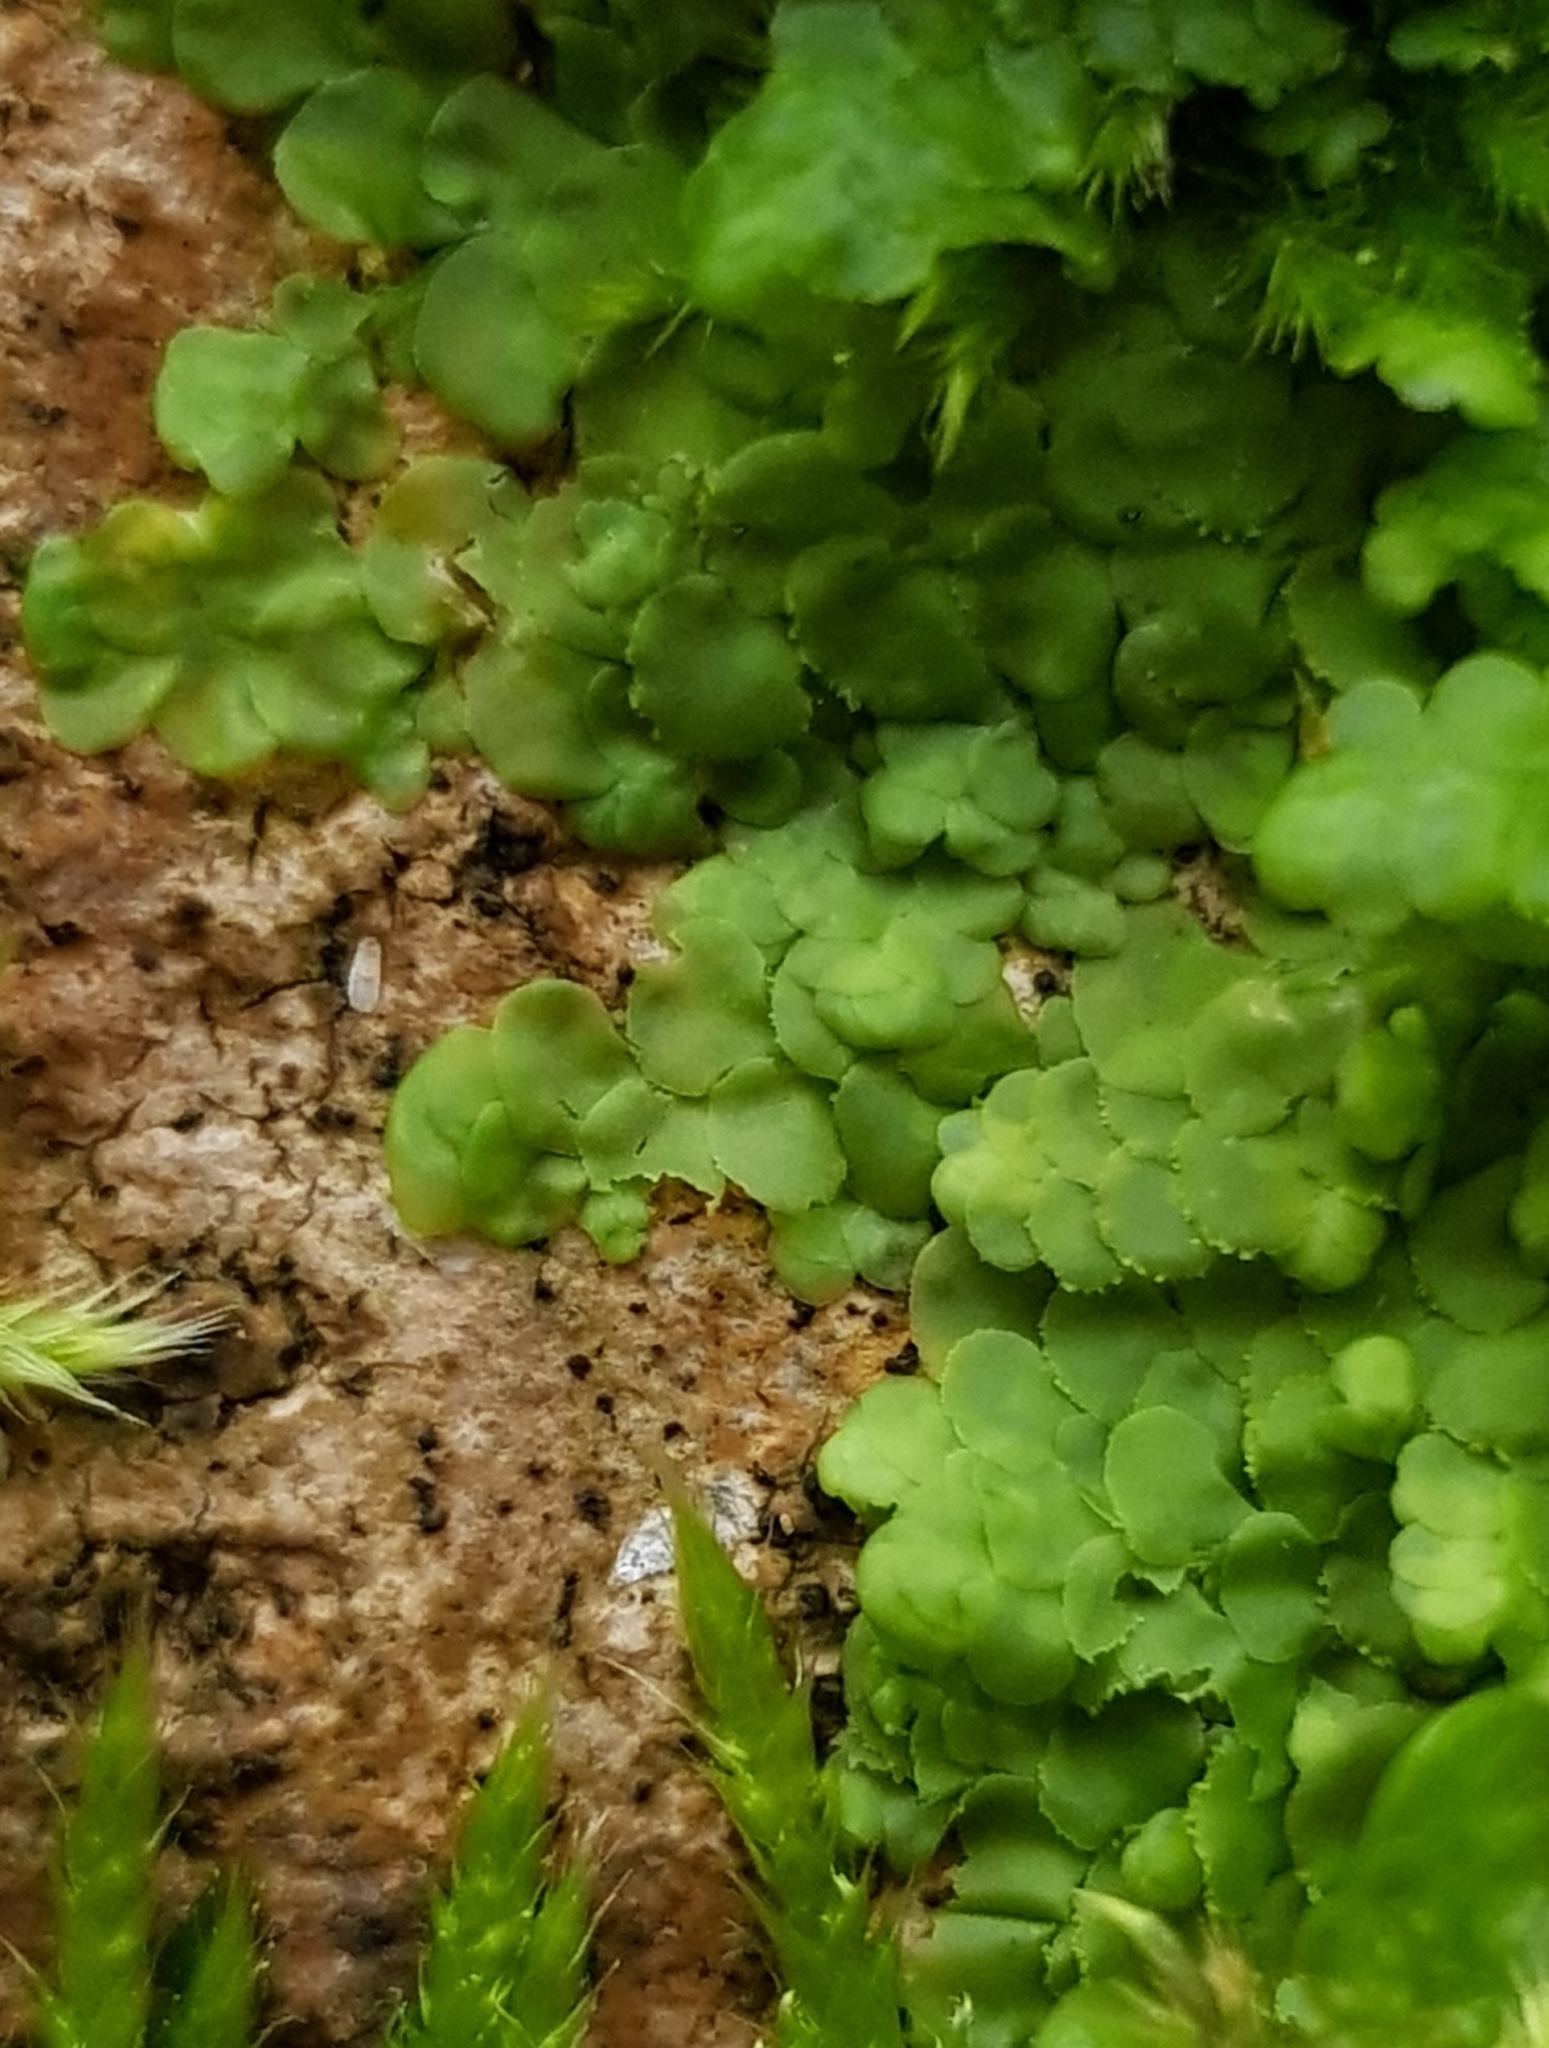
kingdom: Plantae
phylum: Marchantiophyta
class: Jungermanniopsida
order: Porellales
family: Radulaceae
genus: Radula
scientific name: Radula complanata
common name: Flat-leaved scalewort
